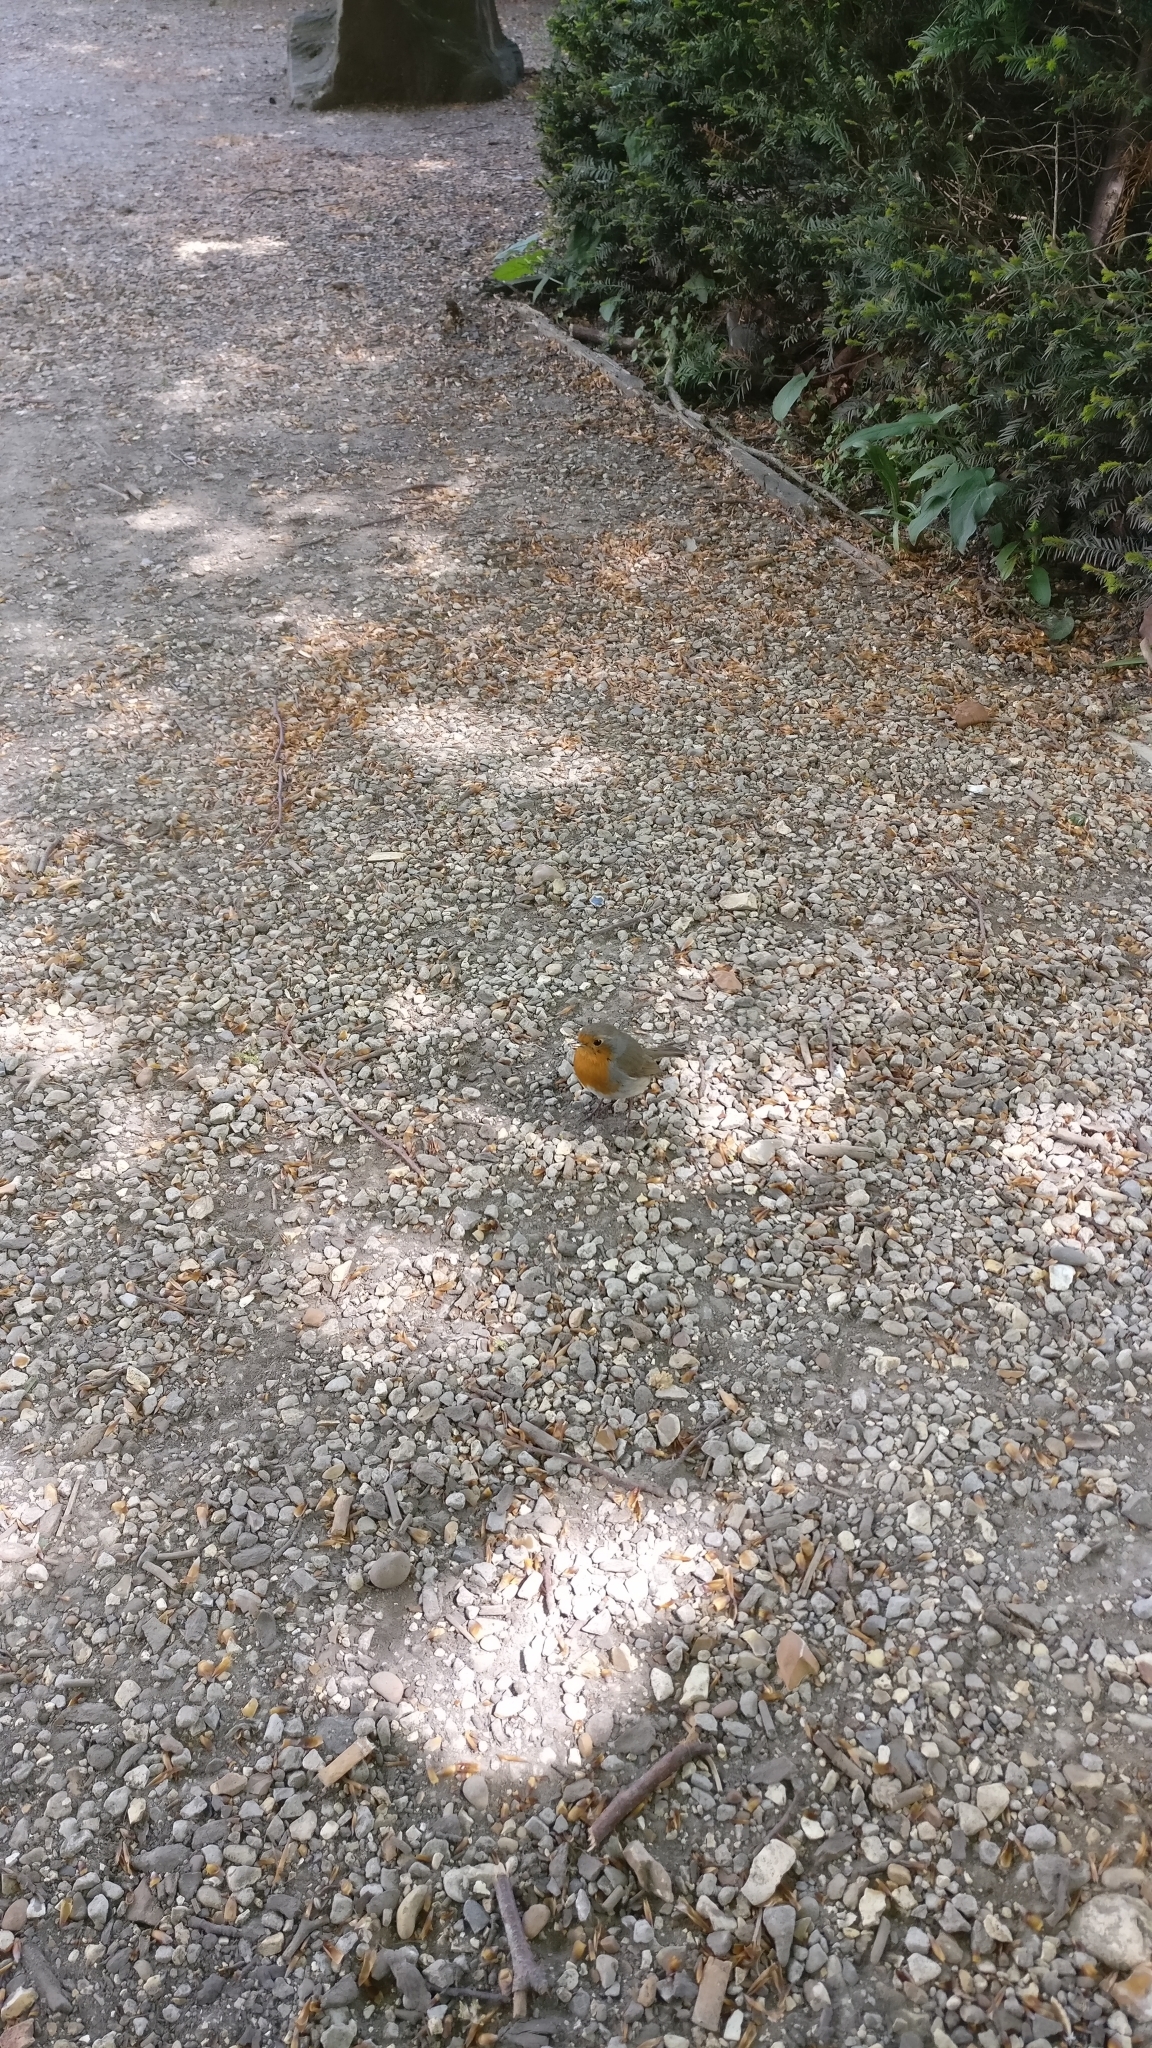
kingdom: Animalia
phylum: Chordata
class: Aves
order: Passeriformes
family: Muscicapidae
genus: Erithacus
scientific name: Erithacus rubecula
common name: European robin
